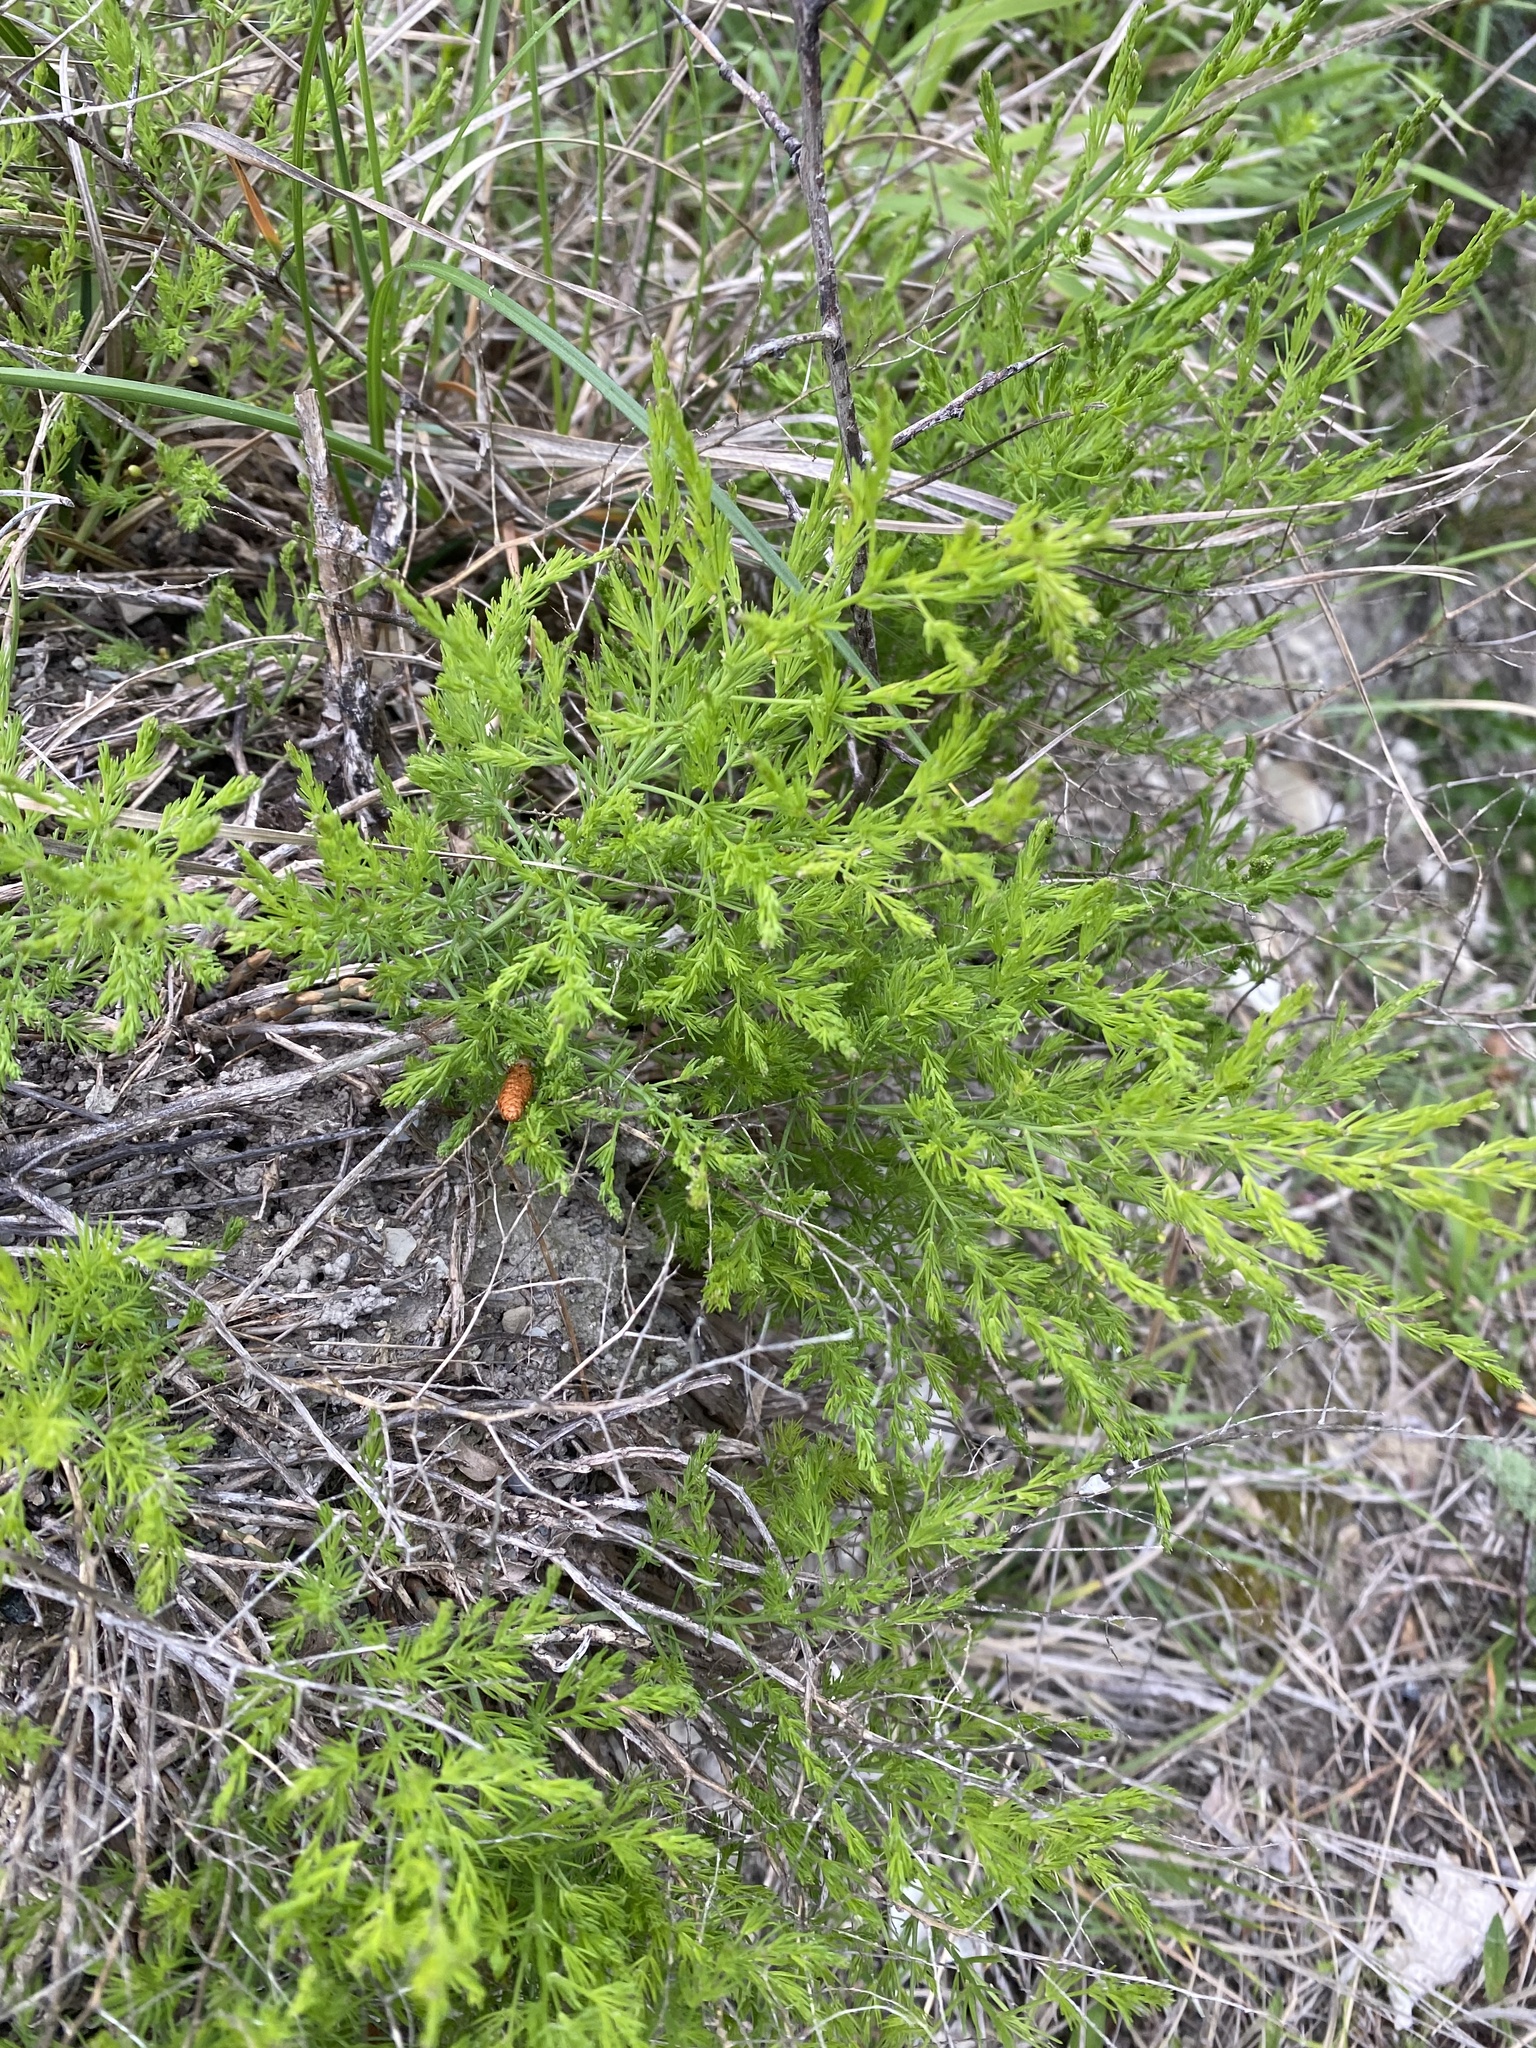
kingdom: Plantae
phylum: Tracheophyta
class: Liliopsida
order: Asparagales
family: Asparagaceae
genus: Asparagus
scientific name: Asparagus officinalis
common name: Garden asparagus
